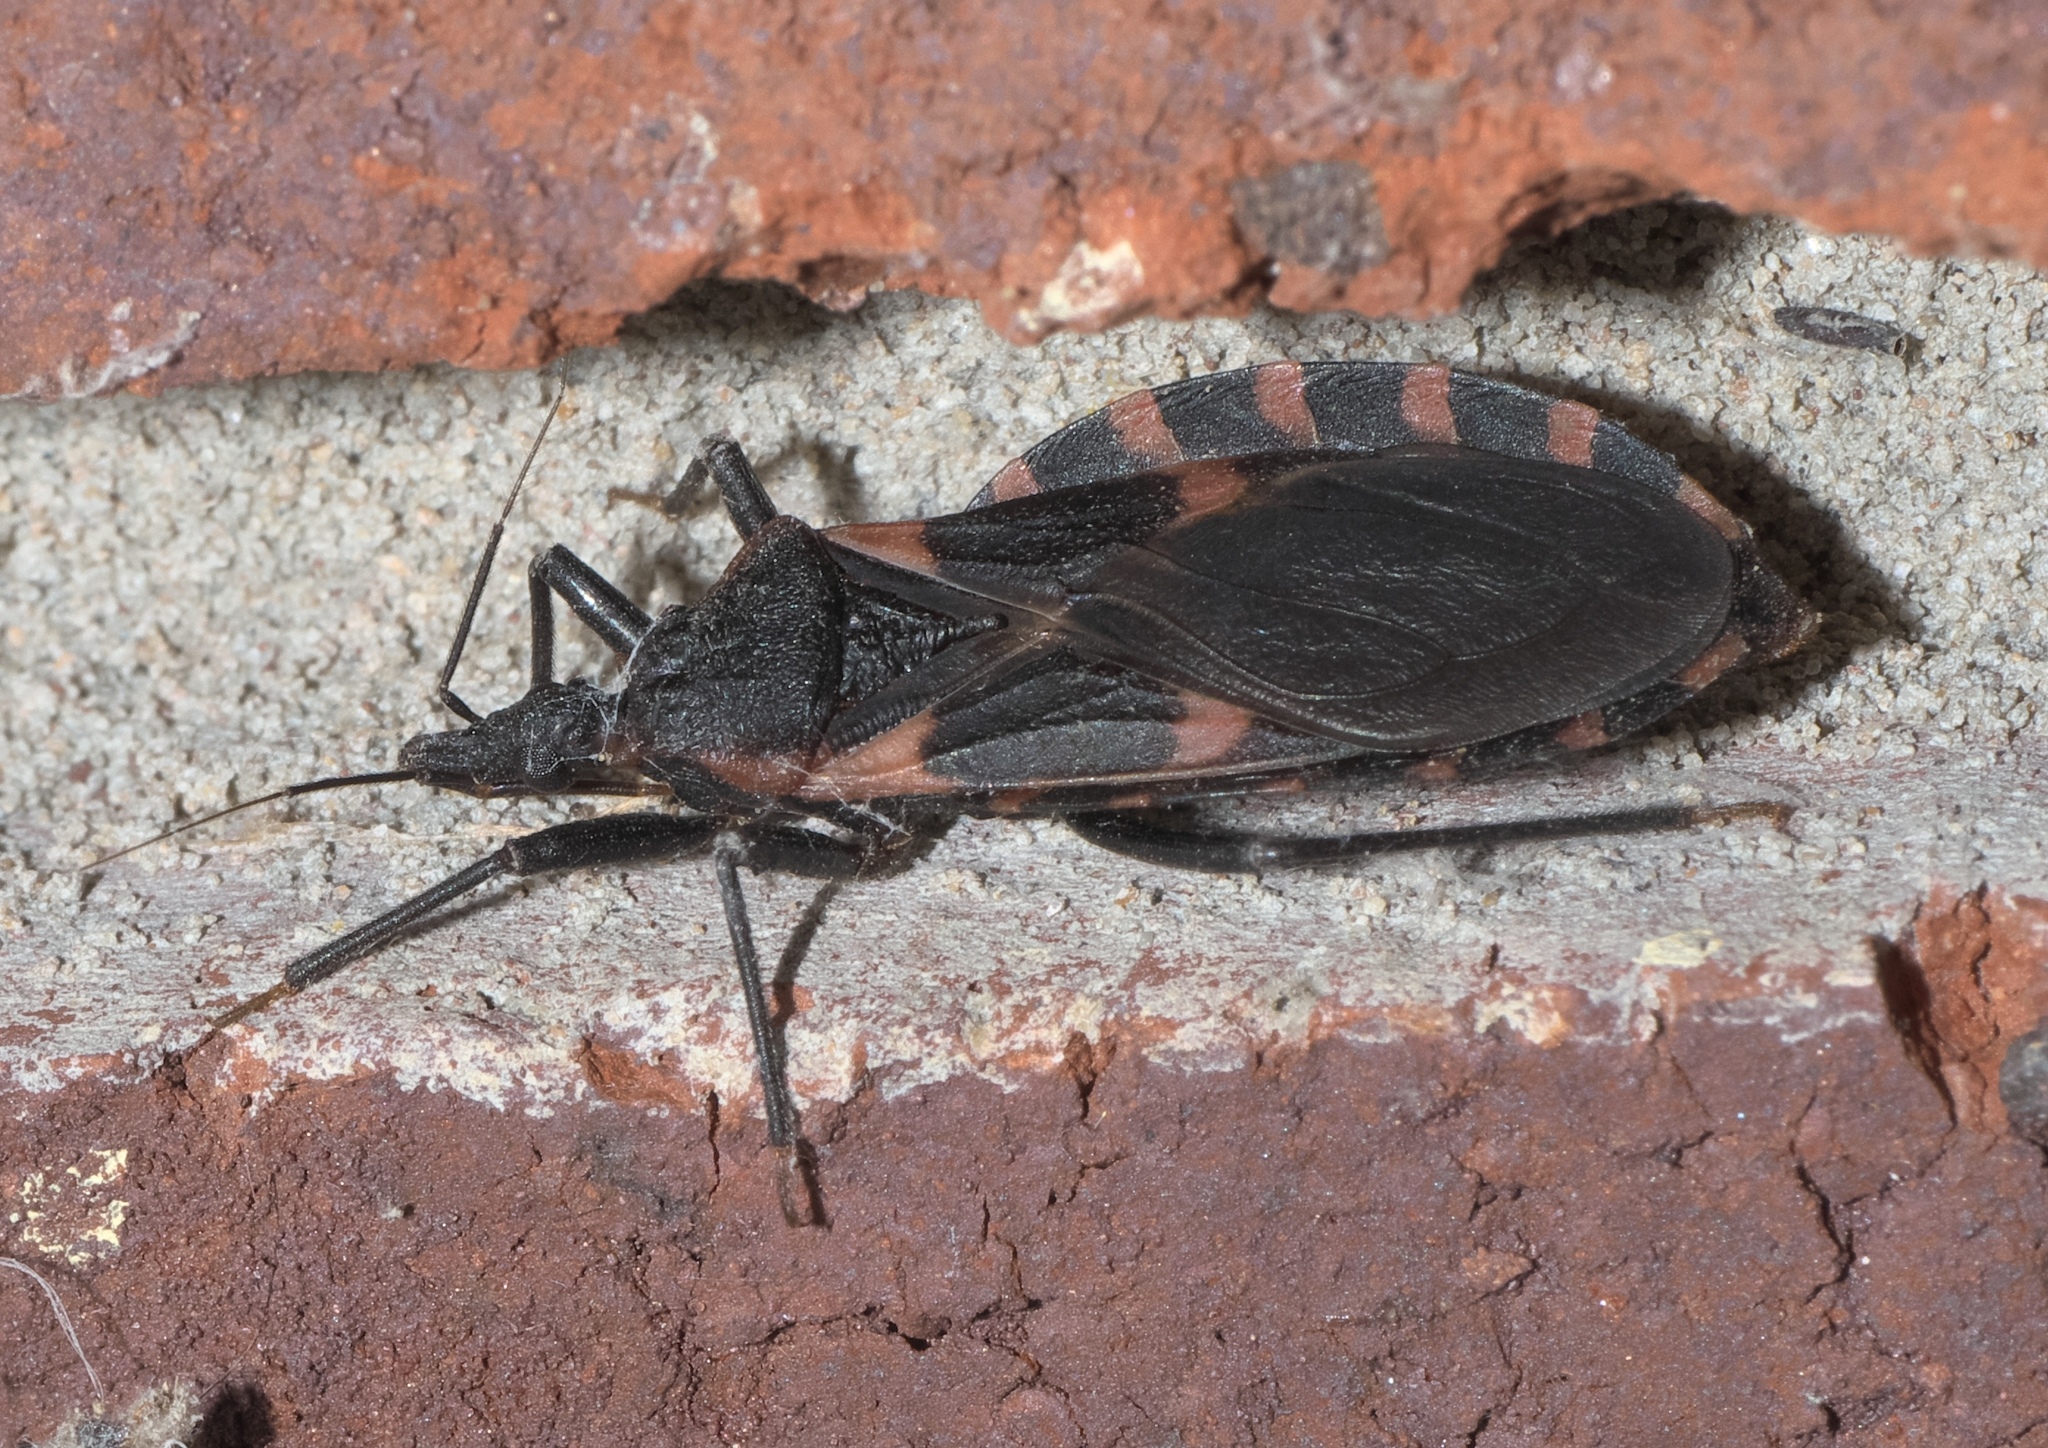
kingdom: Animalia
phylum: Arthropoda
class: Insecta
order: Hemiptera
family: Reduviidae
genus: Triatoma
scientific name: Triatoma sanguisuga
